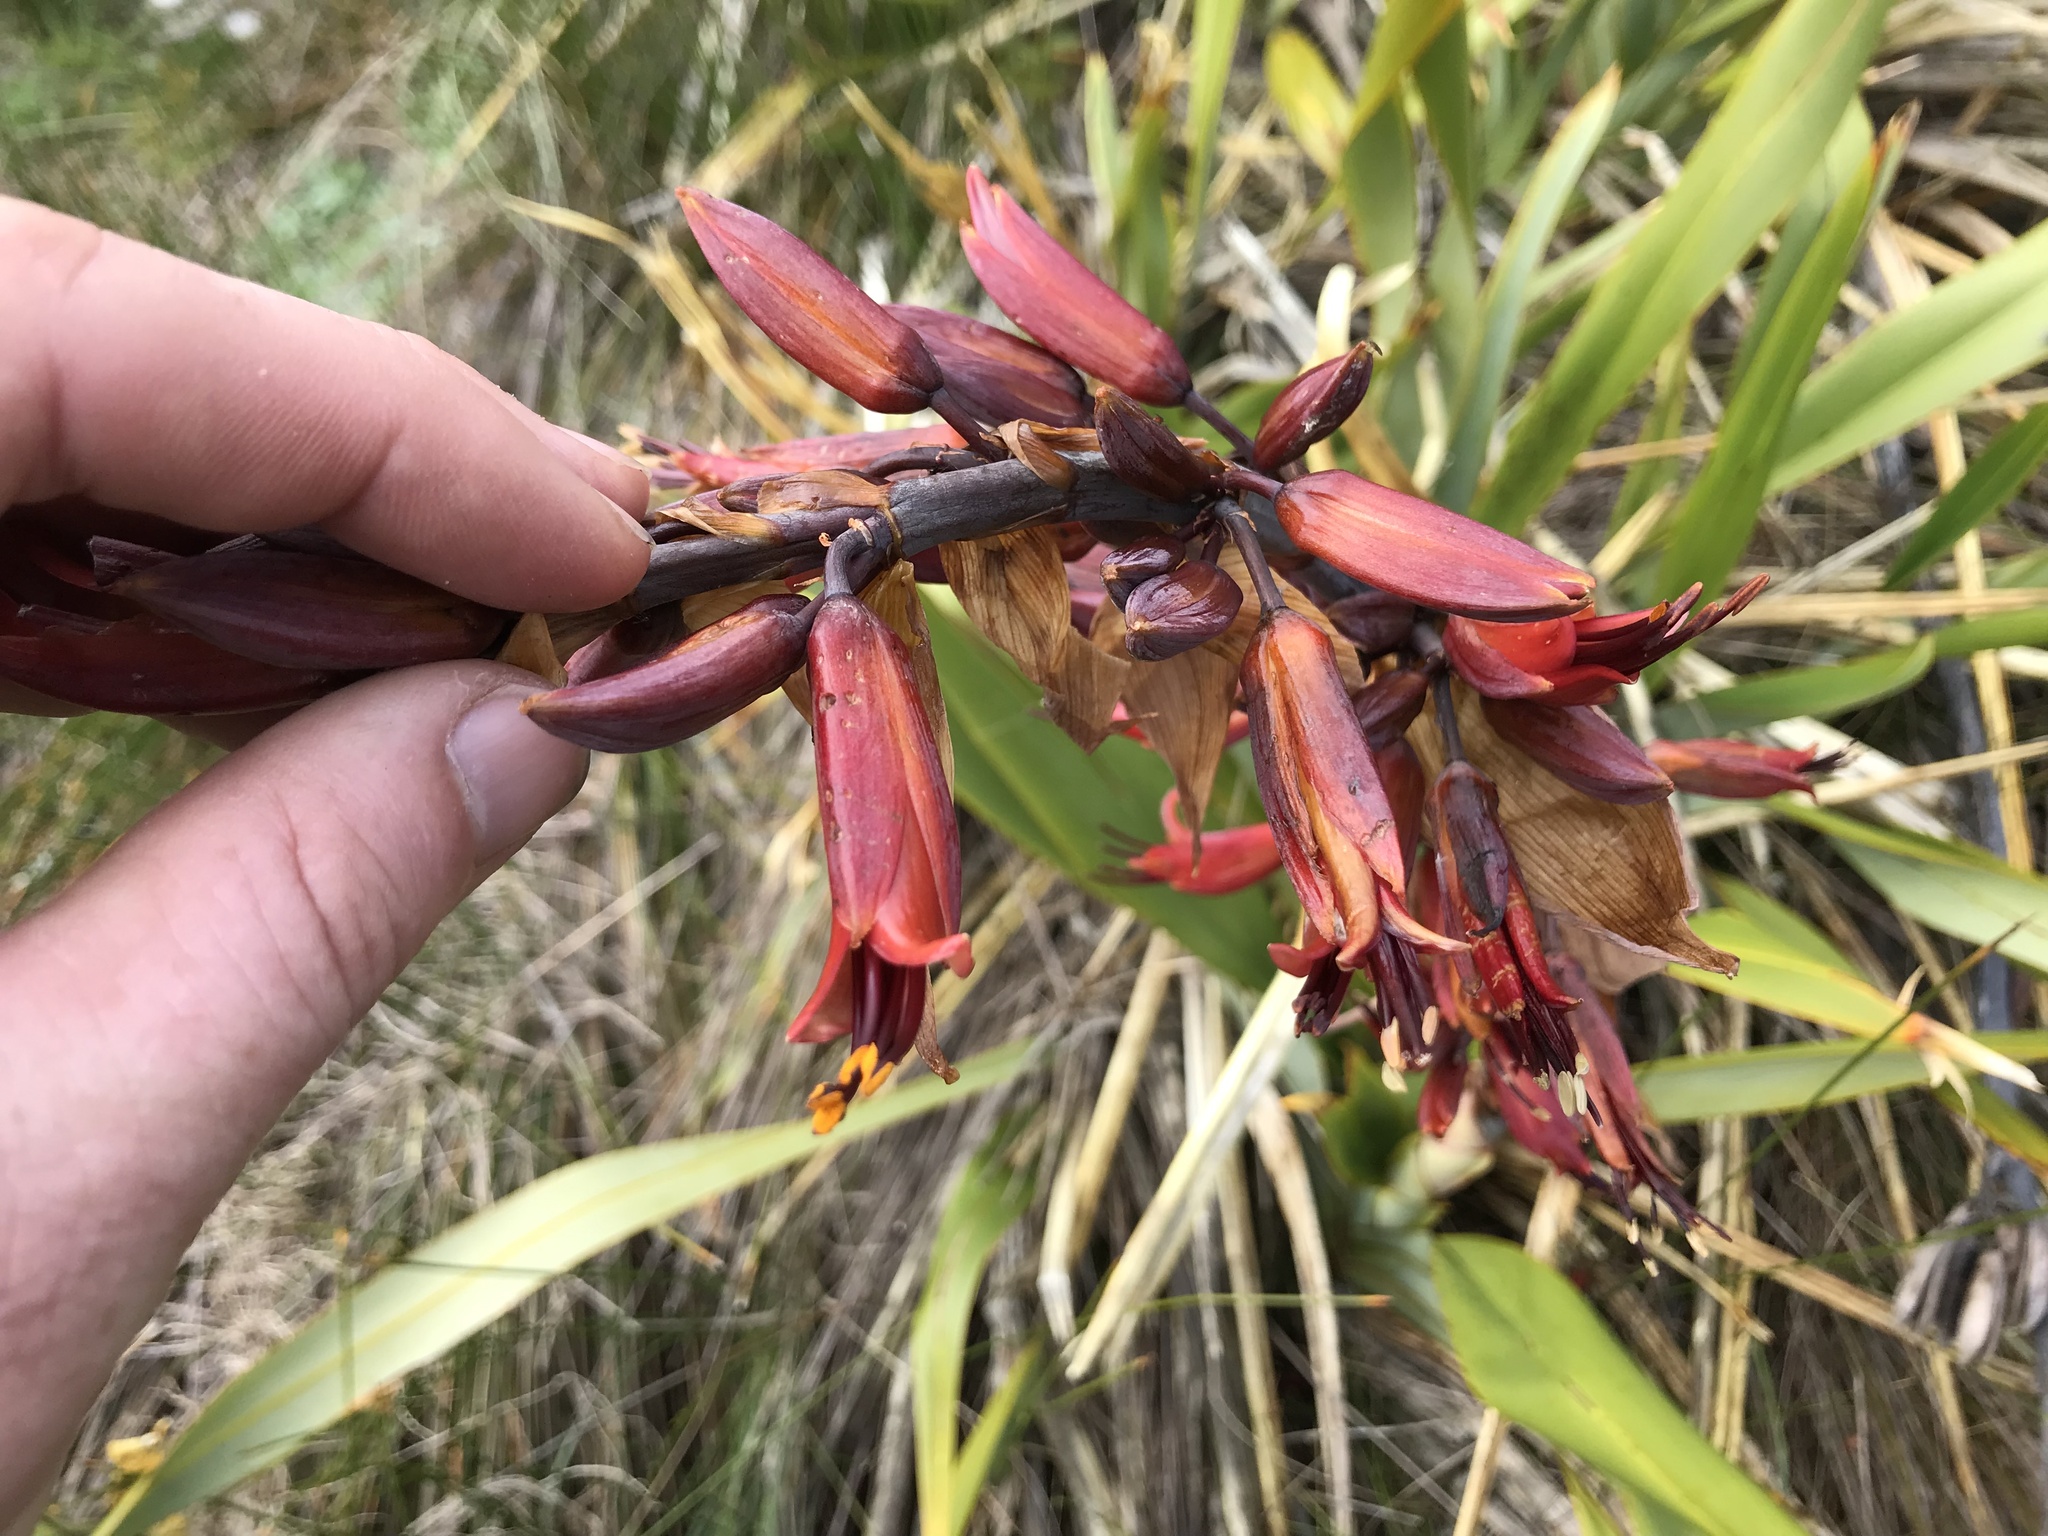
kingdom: Plantae
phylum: Tracheophyta
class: Liliopsida
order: Asparagales
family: Asphodelaceae
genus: Phormium
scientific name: Phormium tenax
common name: New zealand flax
